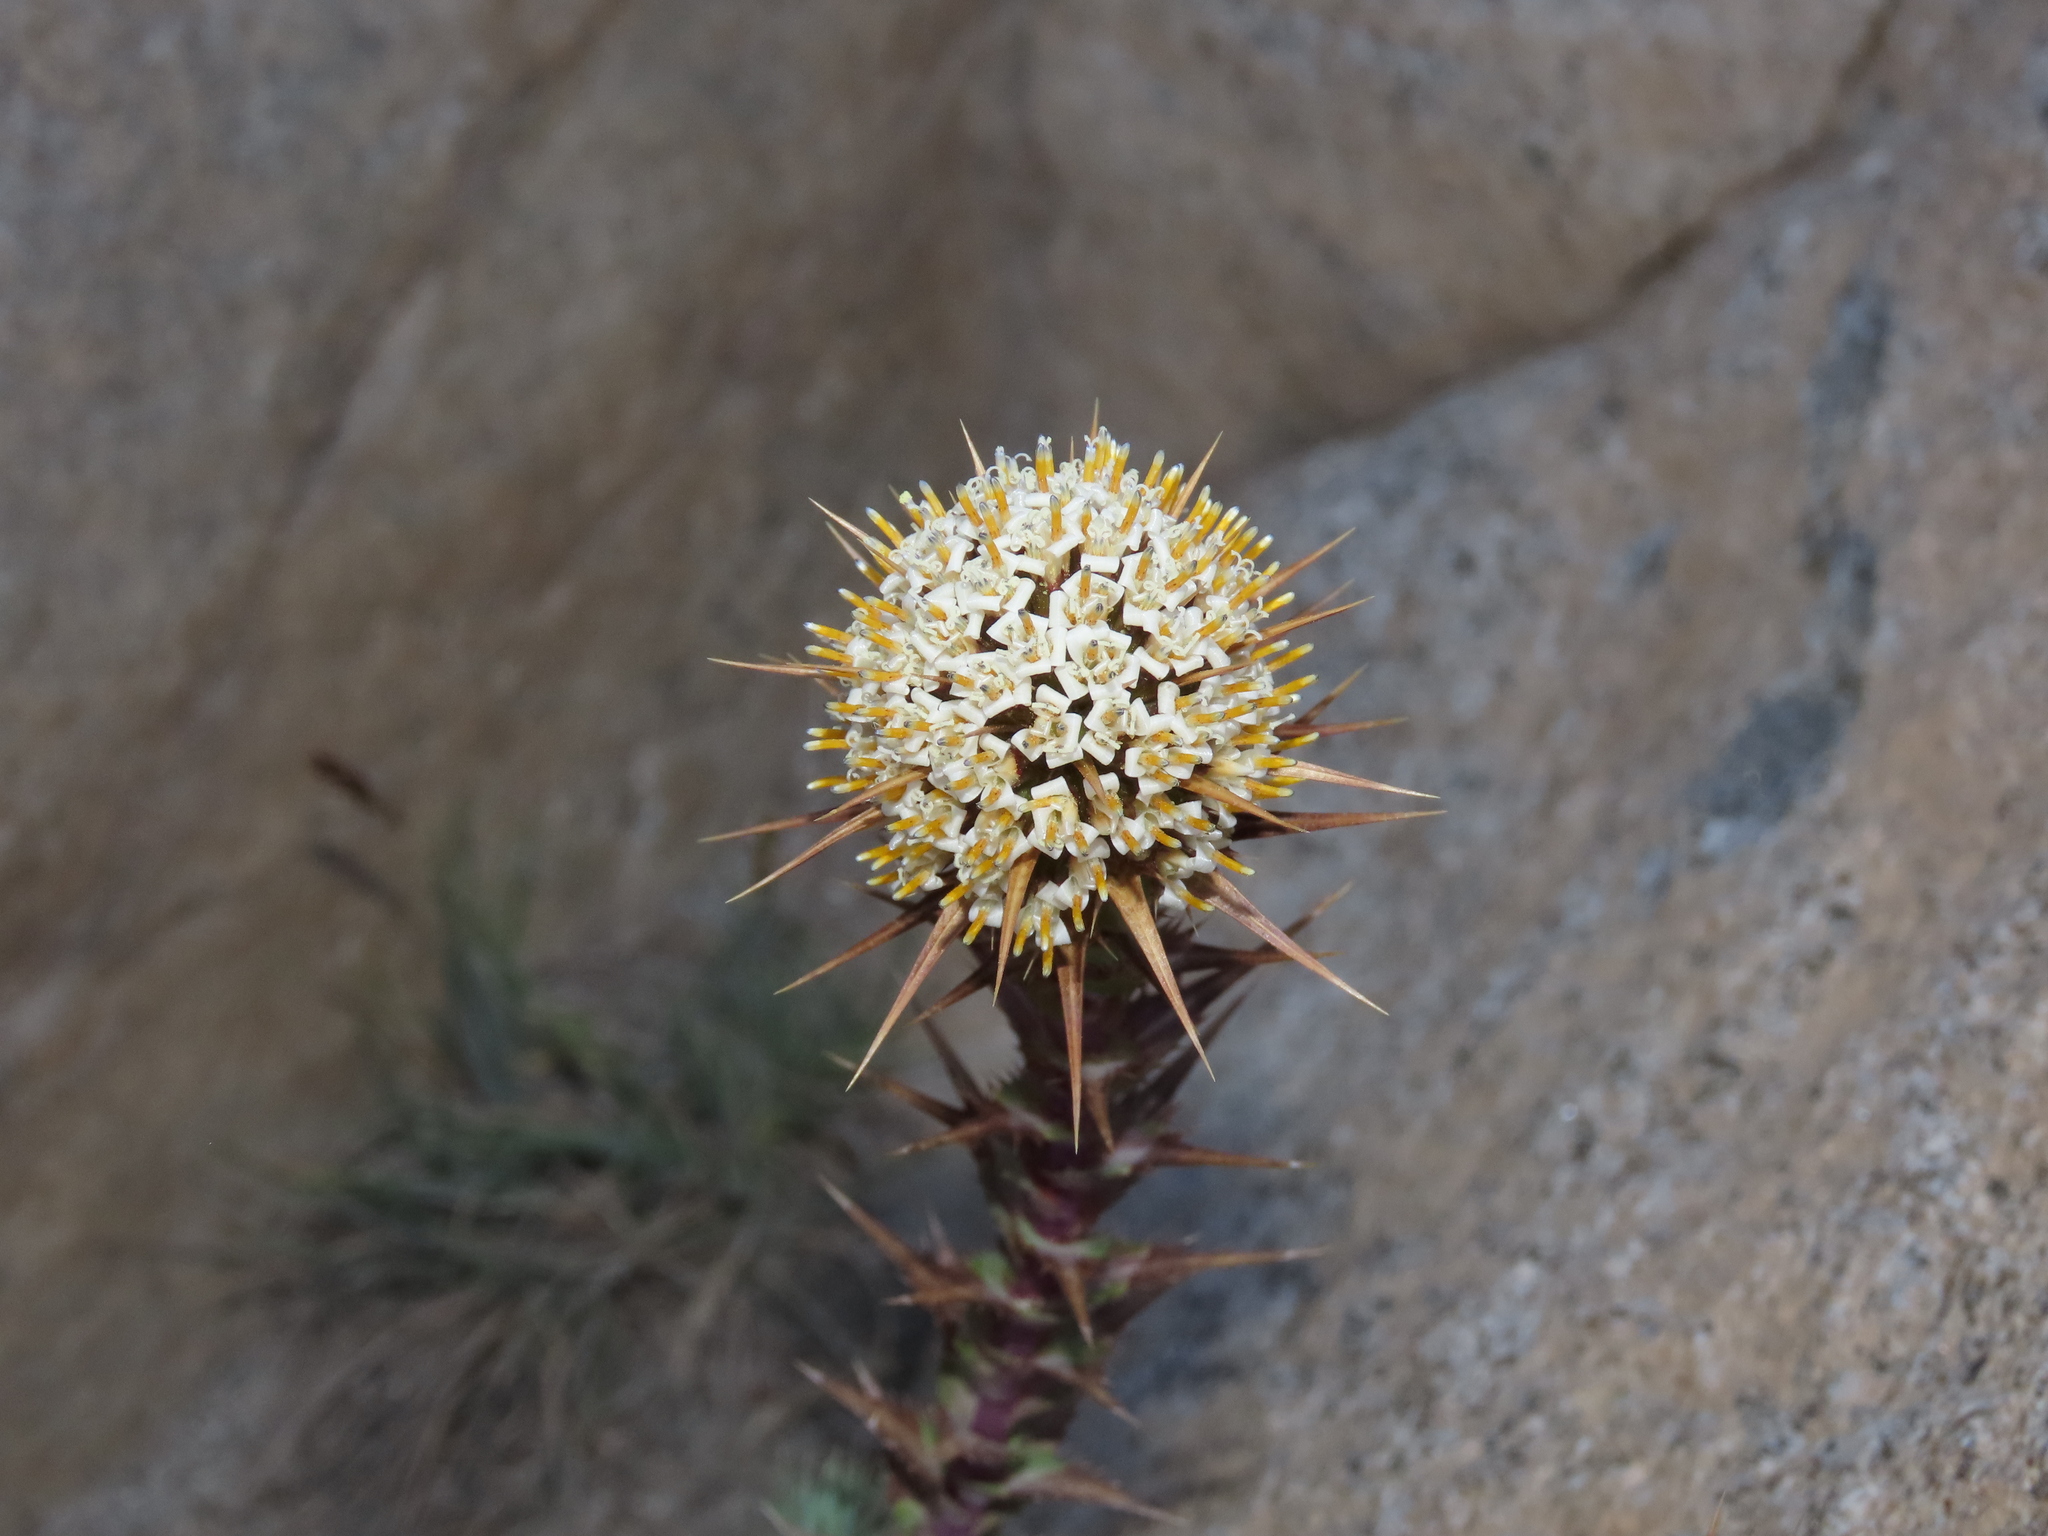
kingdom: Plantae
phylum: Tracheophyta
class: Magnoliopsida
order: Asterales
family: Asteraceae
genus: Nassauvia
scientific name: Nassauvia pyramidalis
